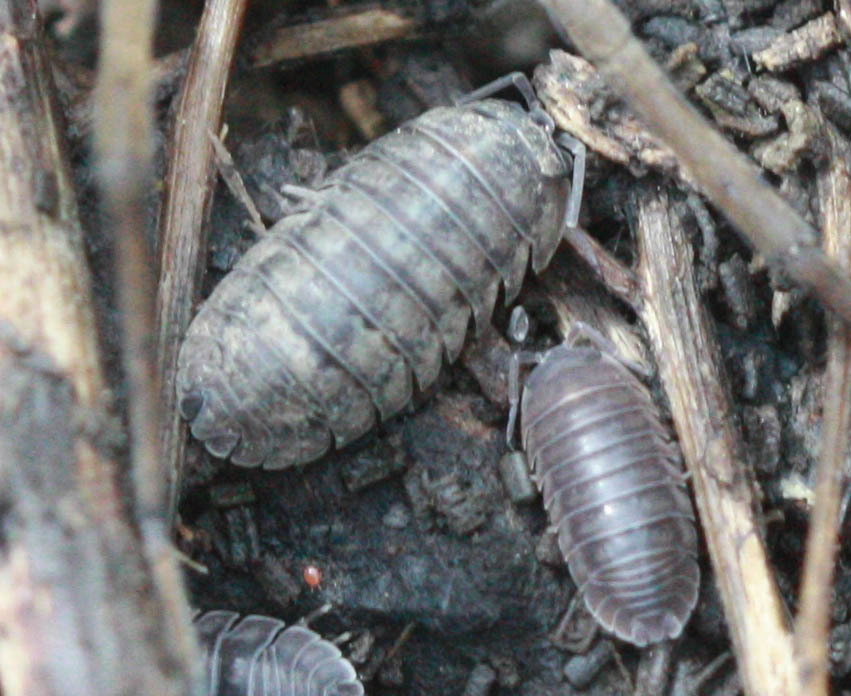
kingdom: Animalia
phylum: Arthropoda
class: Malacostraca
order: Isopoda
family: Armadillidiidae
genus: Armadillidium
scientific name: Armadillidium nasatum
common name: Isopod
